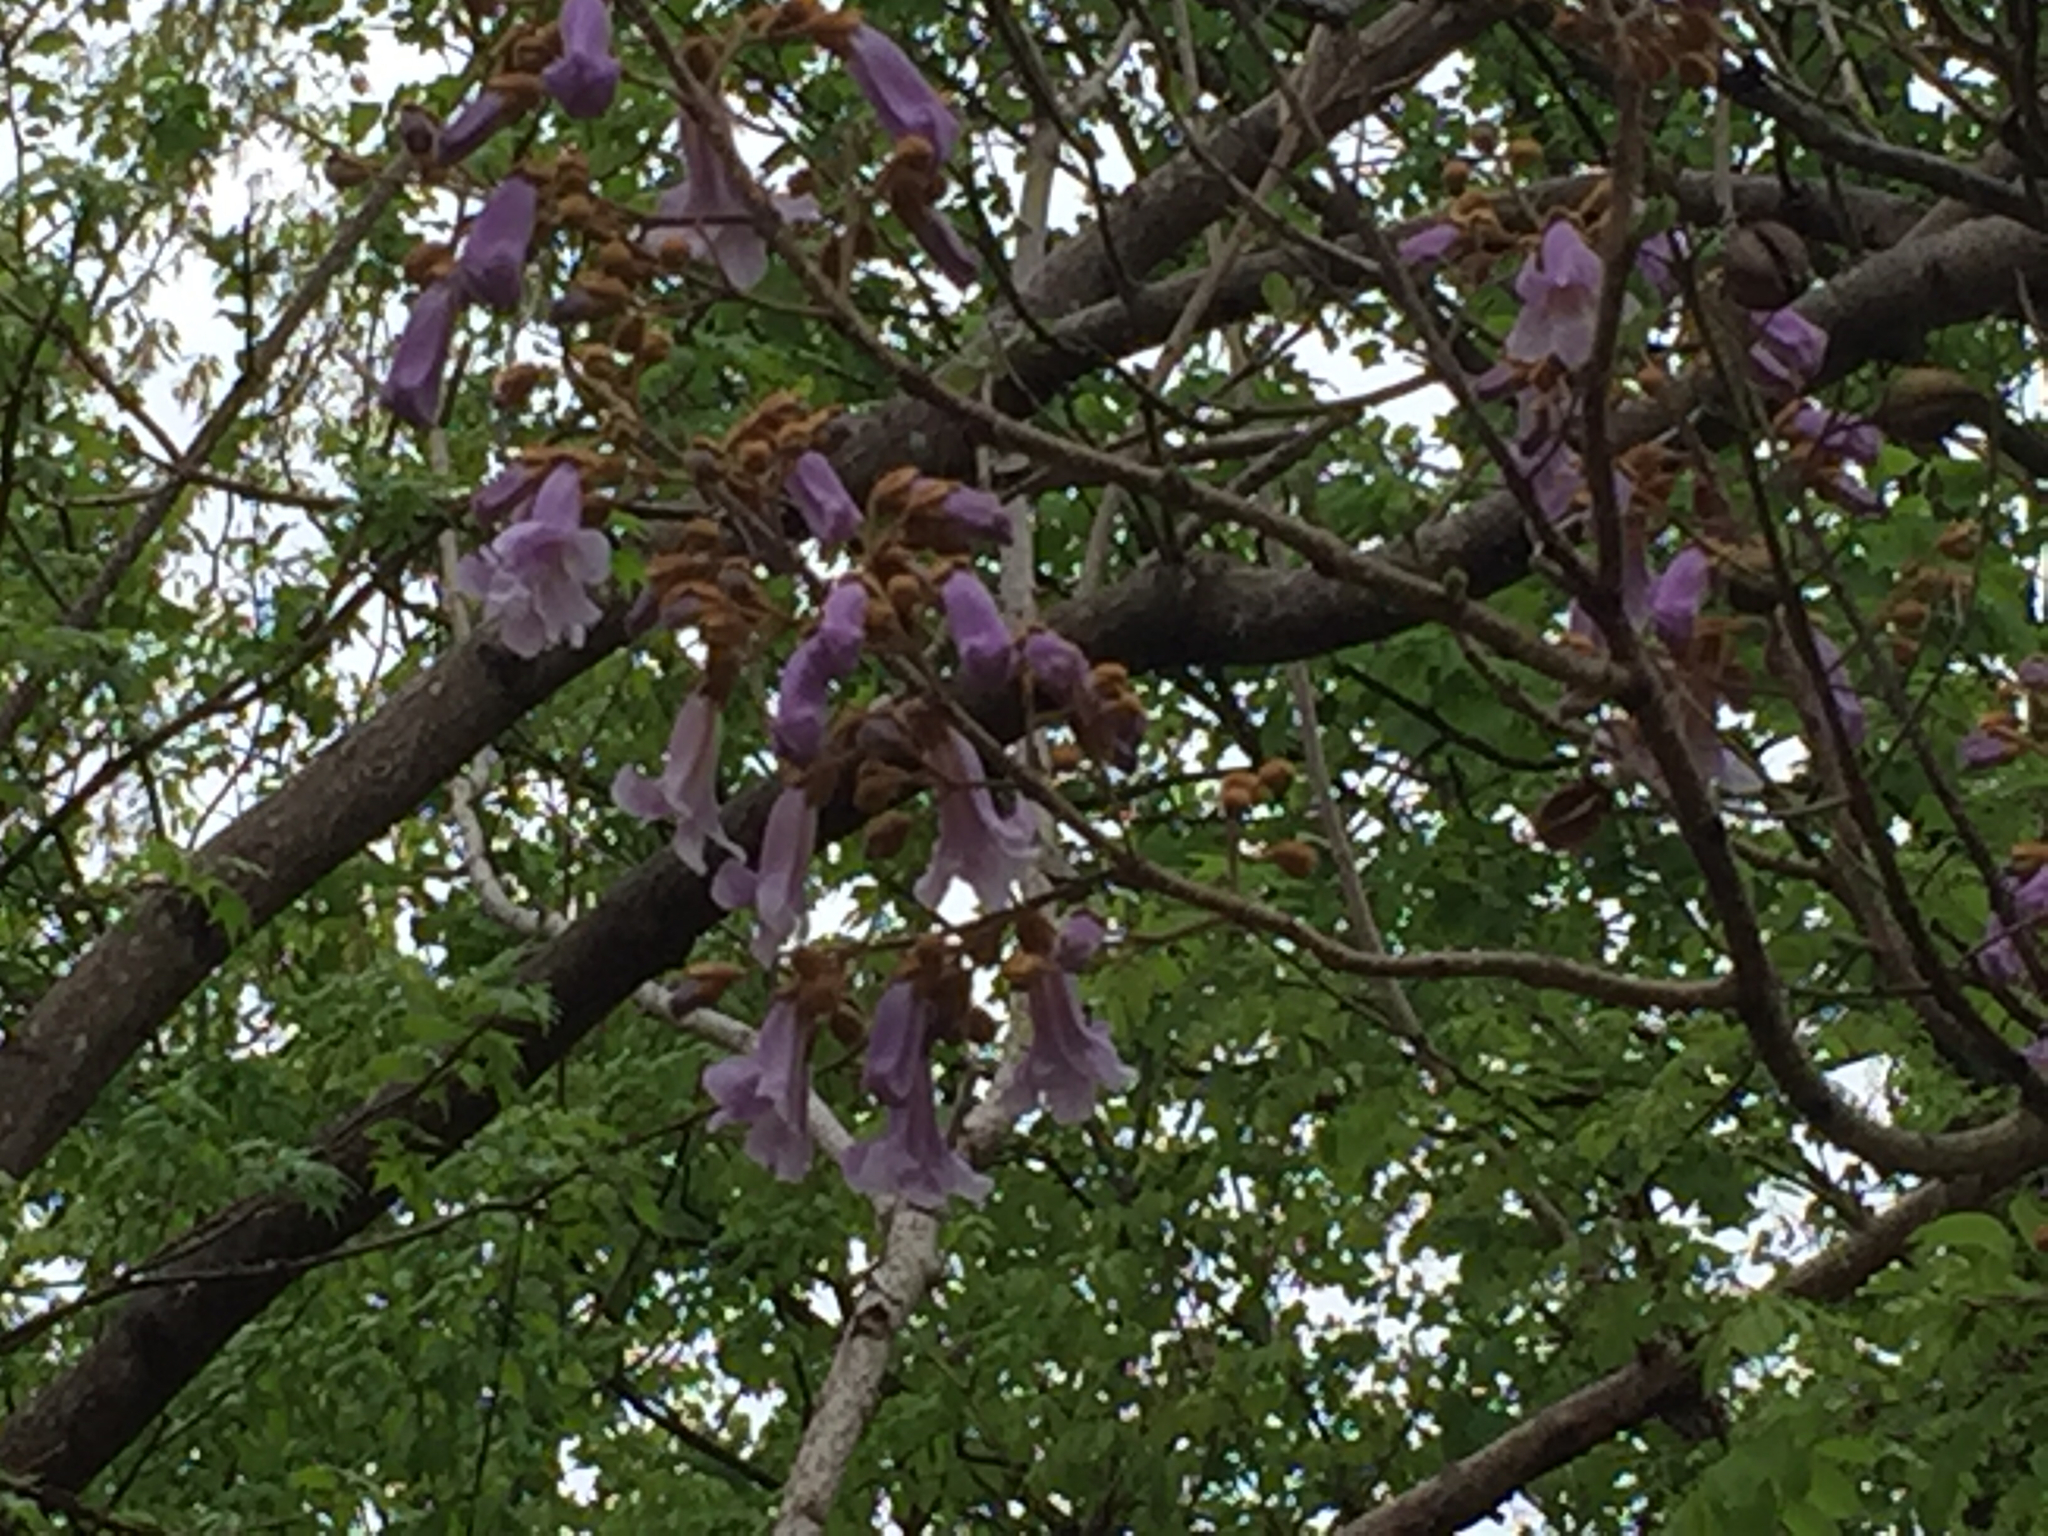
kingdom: Plantae
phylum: Tracheophyta
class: Magnoliopsida
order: Lamiales
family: Paulowniaceae
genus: Paulownia
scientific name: Paulownia tomentosa
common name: Foxglove-tree
